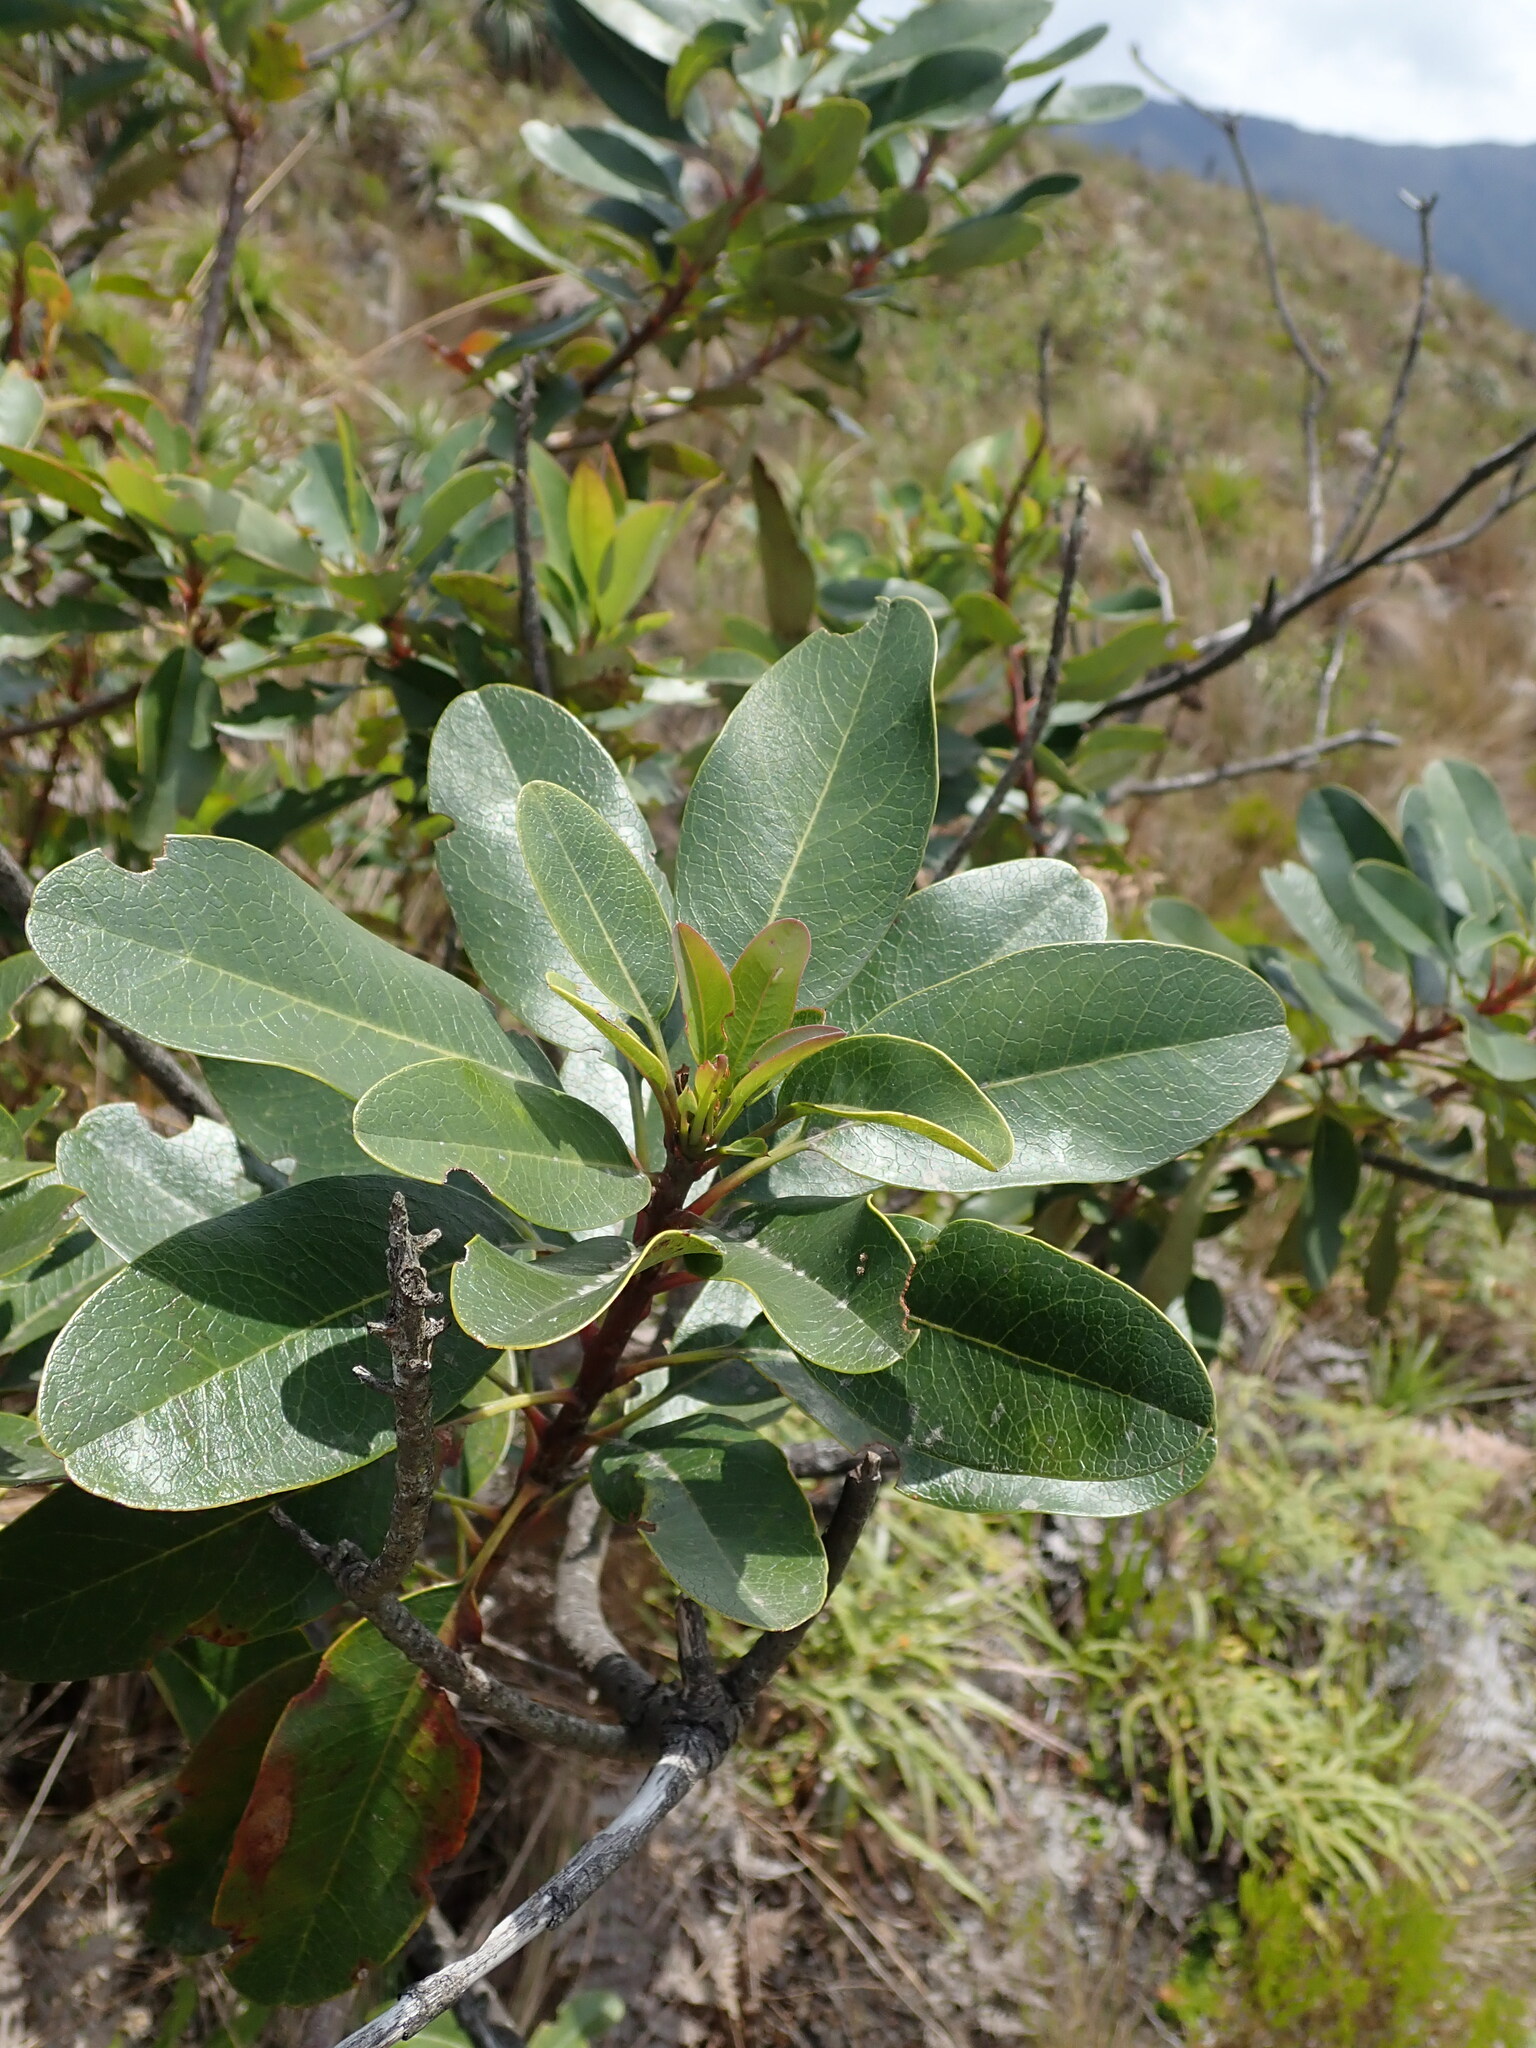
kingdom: Plantae
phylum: Tracheophyta
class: Magnoliopsida
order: Proteales
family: Proteaceae
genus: Oreocallis
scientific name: Oreocallis grandiflora
